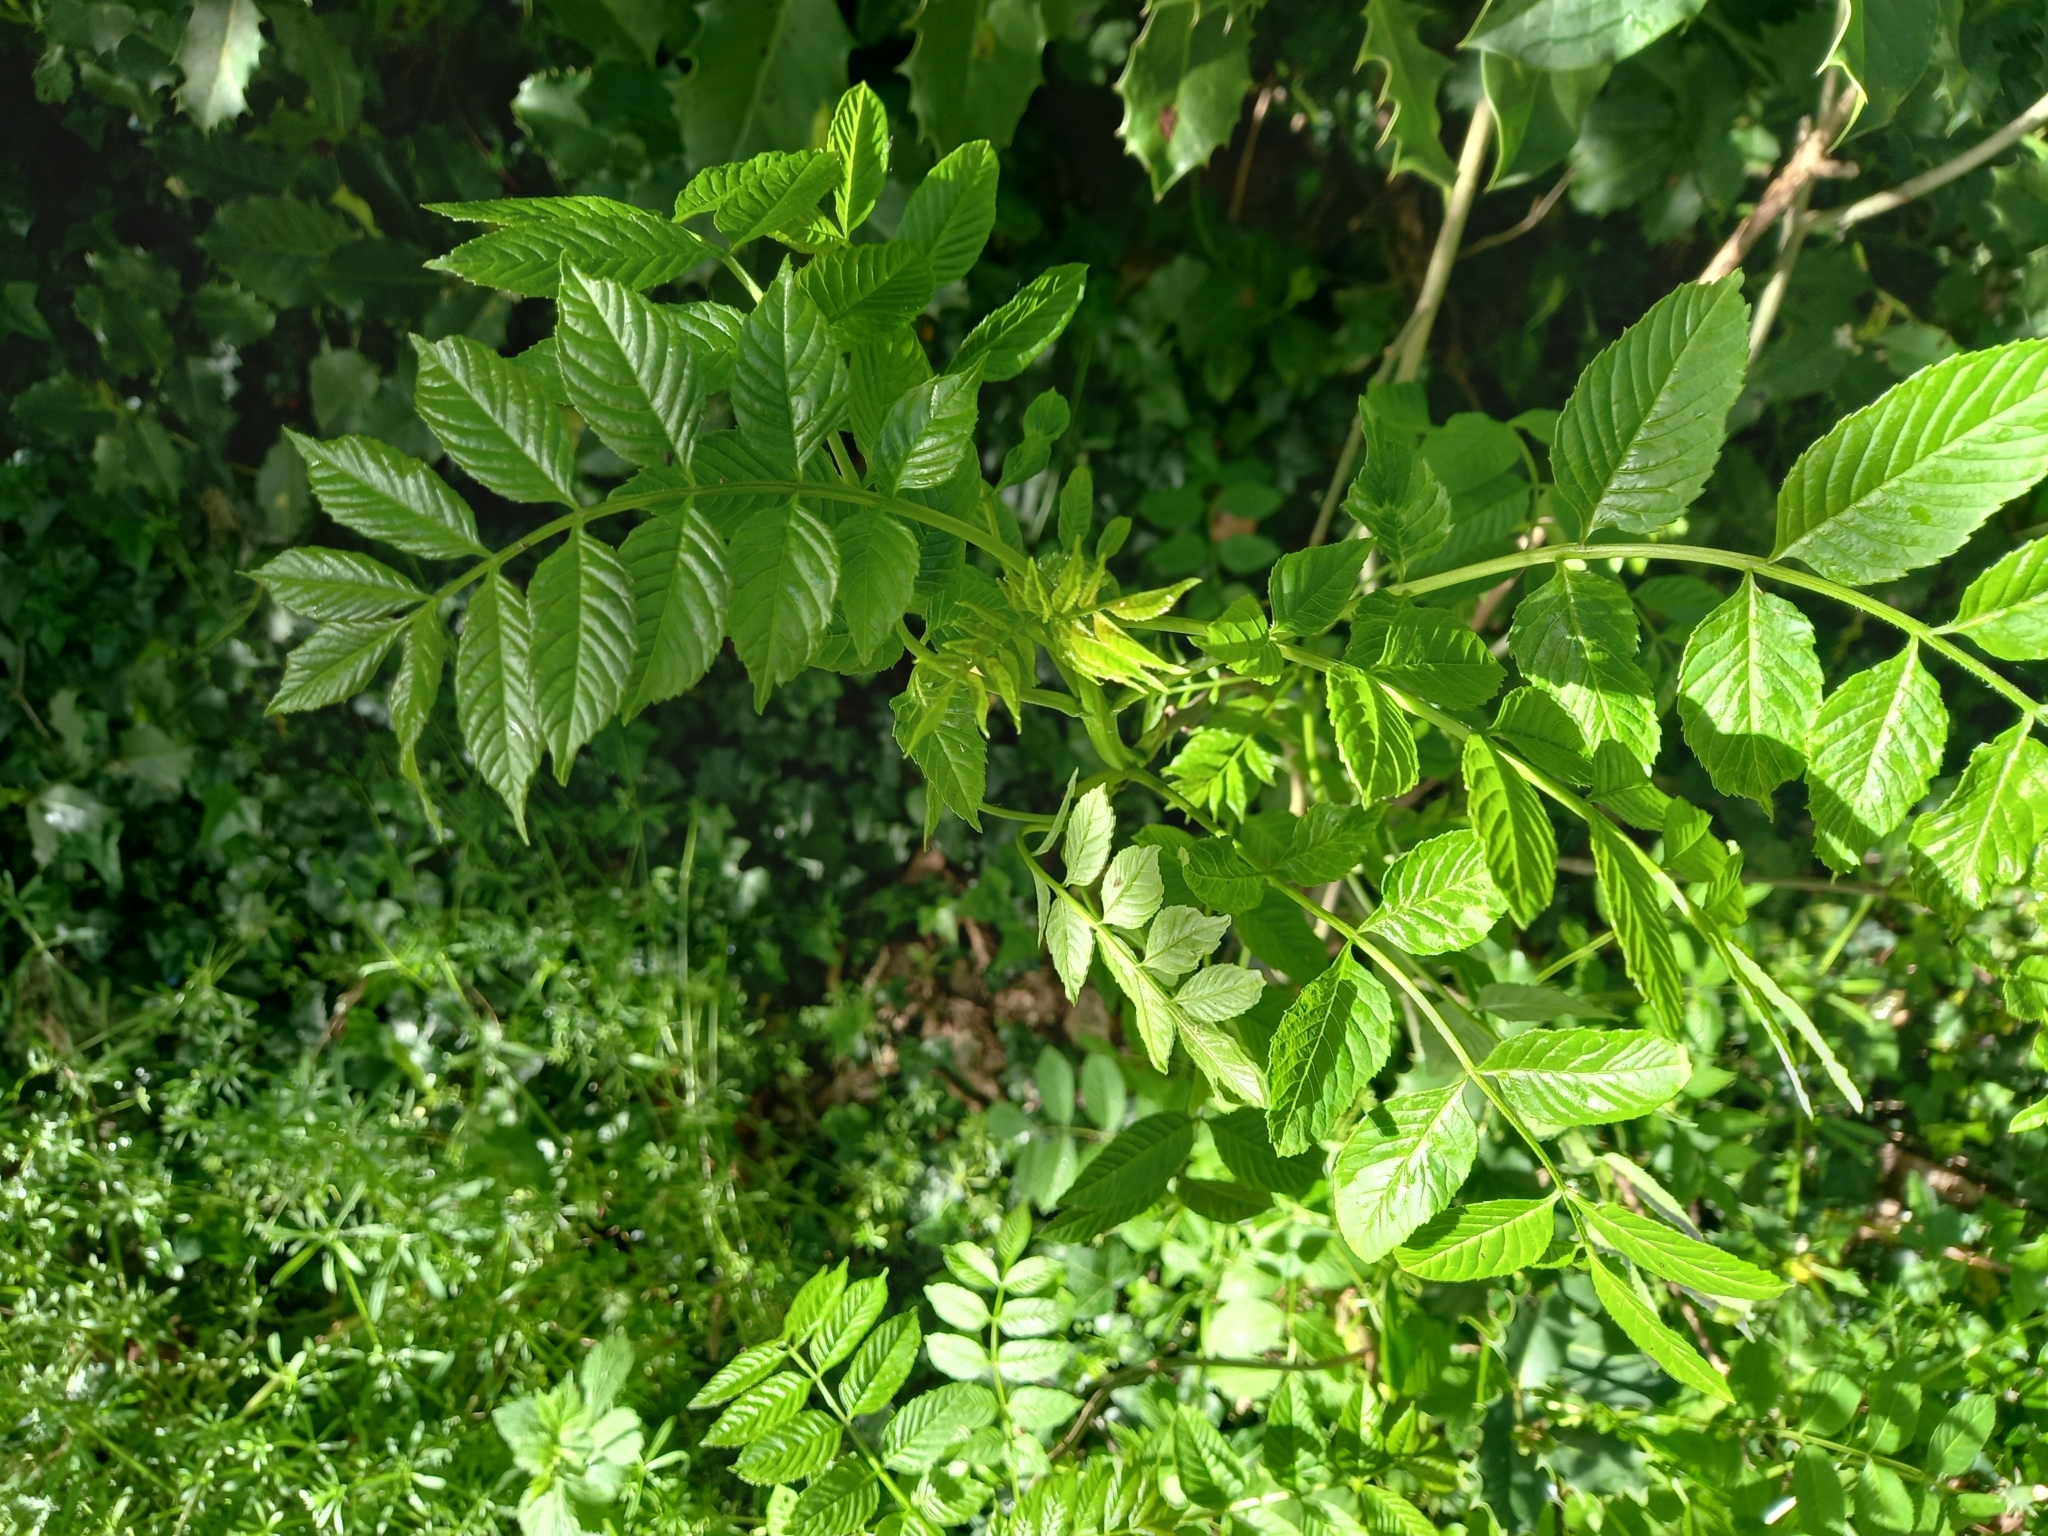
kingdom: Plantae
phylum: Tracheophyta
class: Magnoliopsida
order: Lamiales
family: Oleaceae
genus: Fraxinus
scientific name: Fraxinus excelsior
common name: European ash
